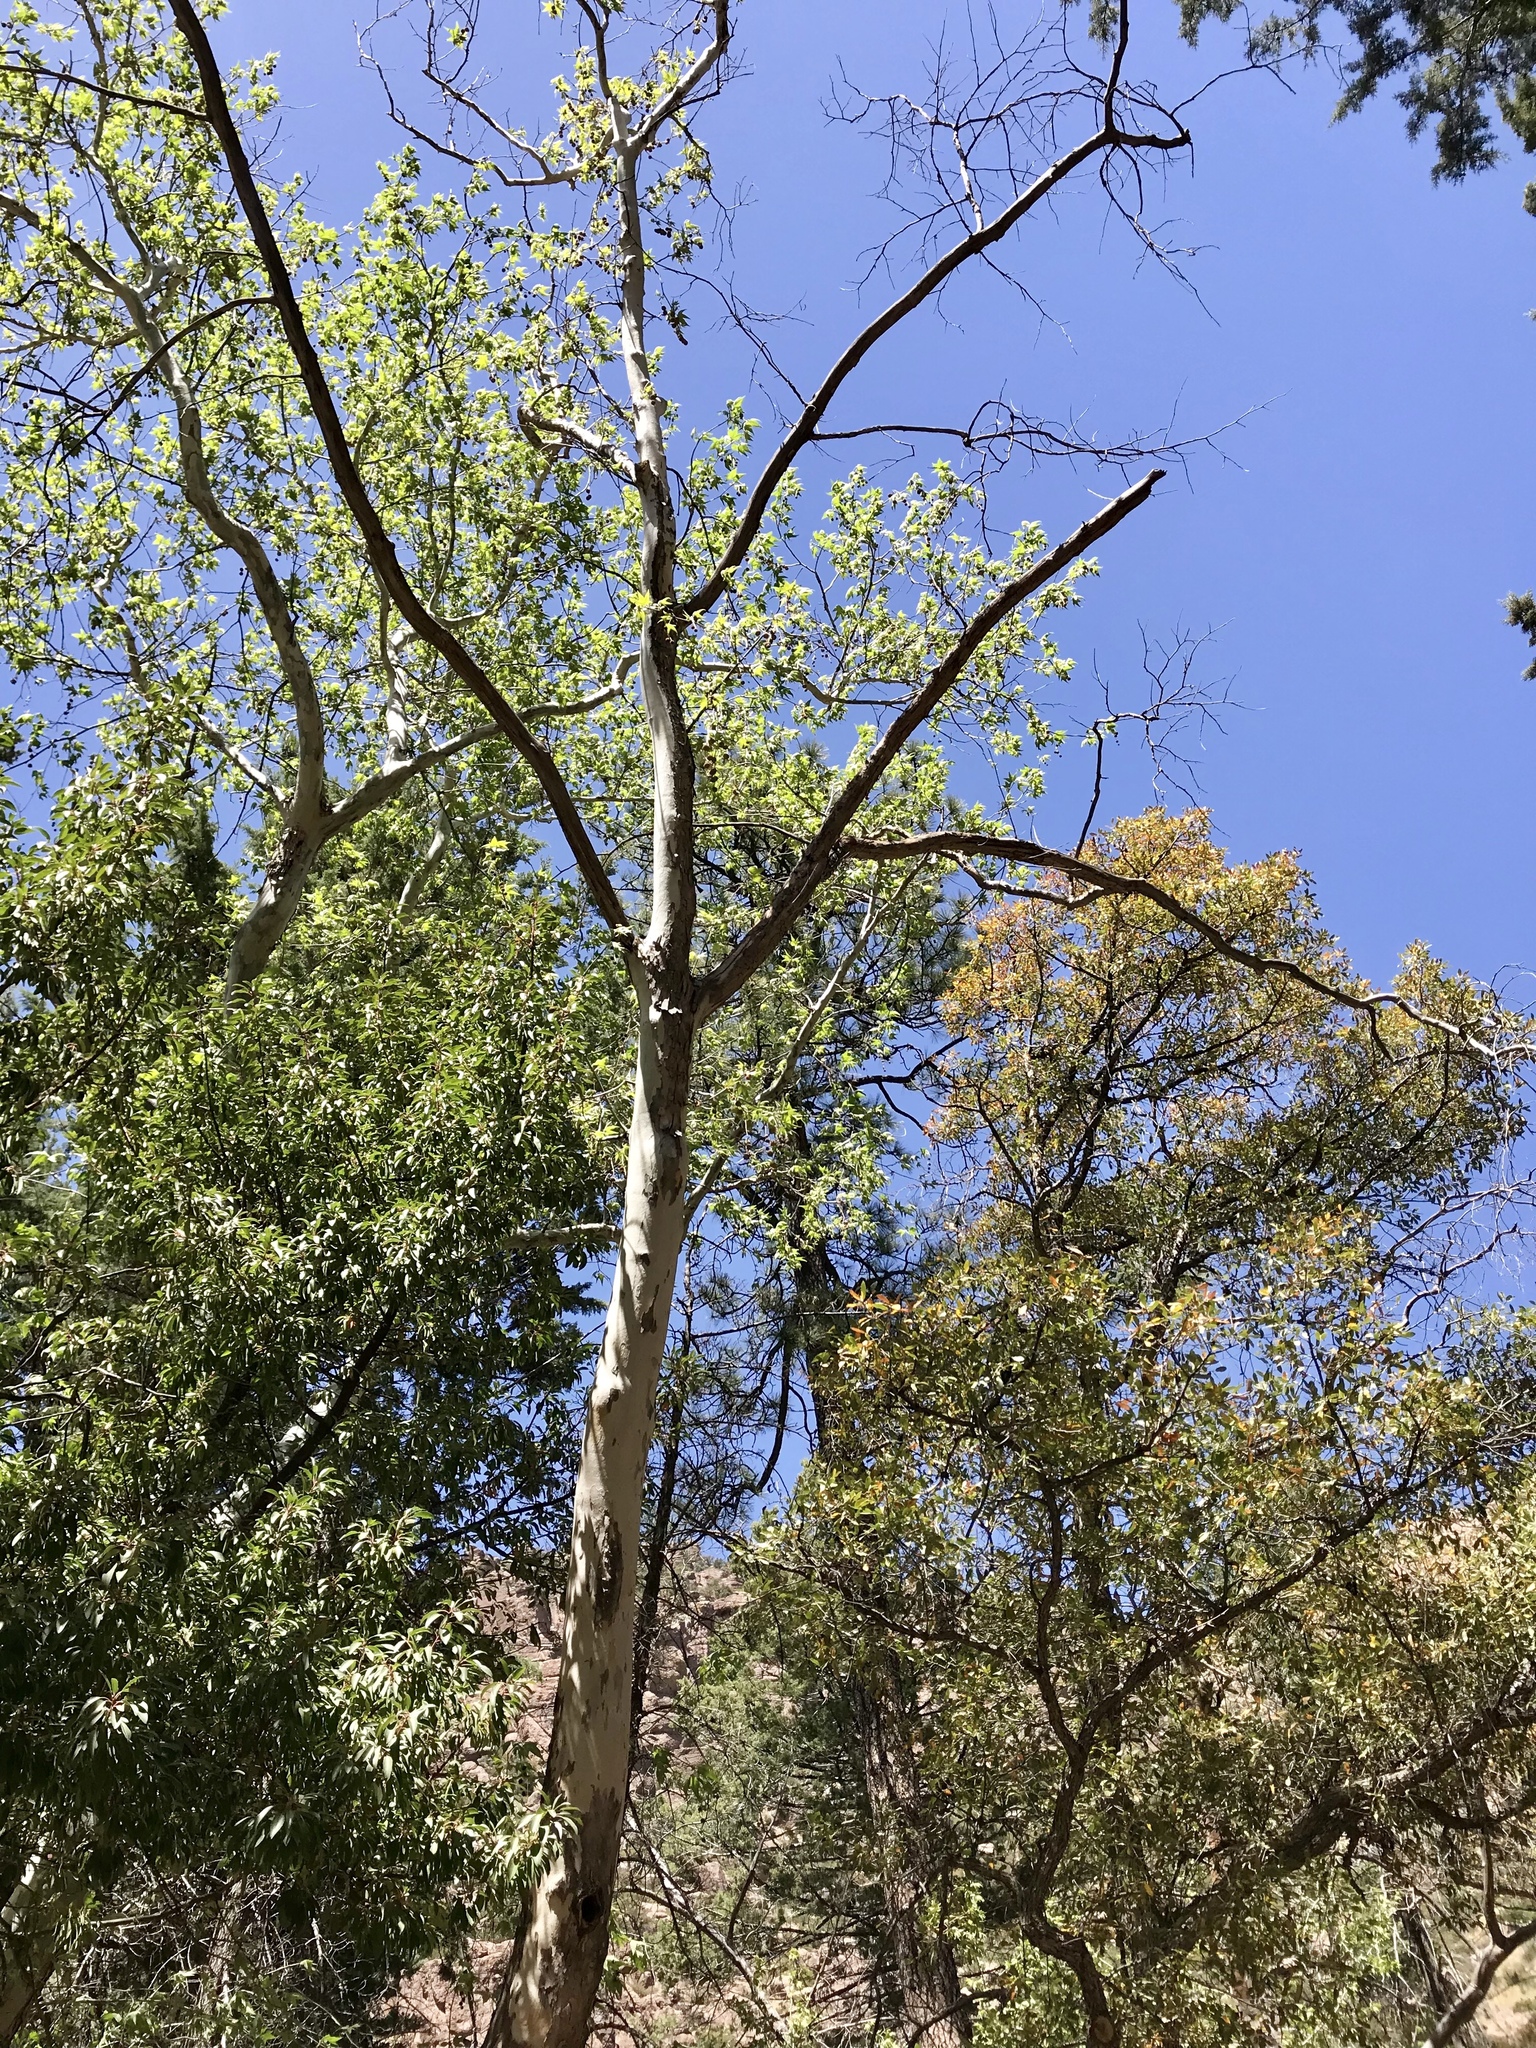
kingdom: Plantae
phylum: Tracheophyta
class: Magnoliopsida
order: Proteales
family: Platanaceae
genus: Platanus
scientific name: Platanus wrightii
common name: Arizona sycamore
